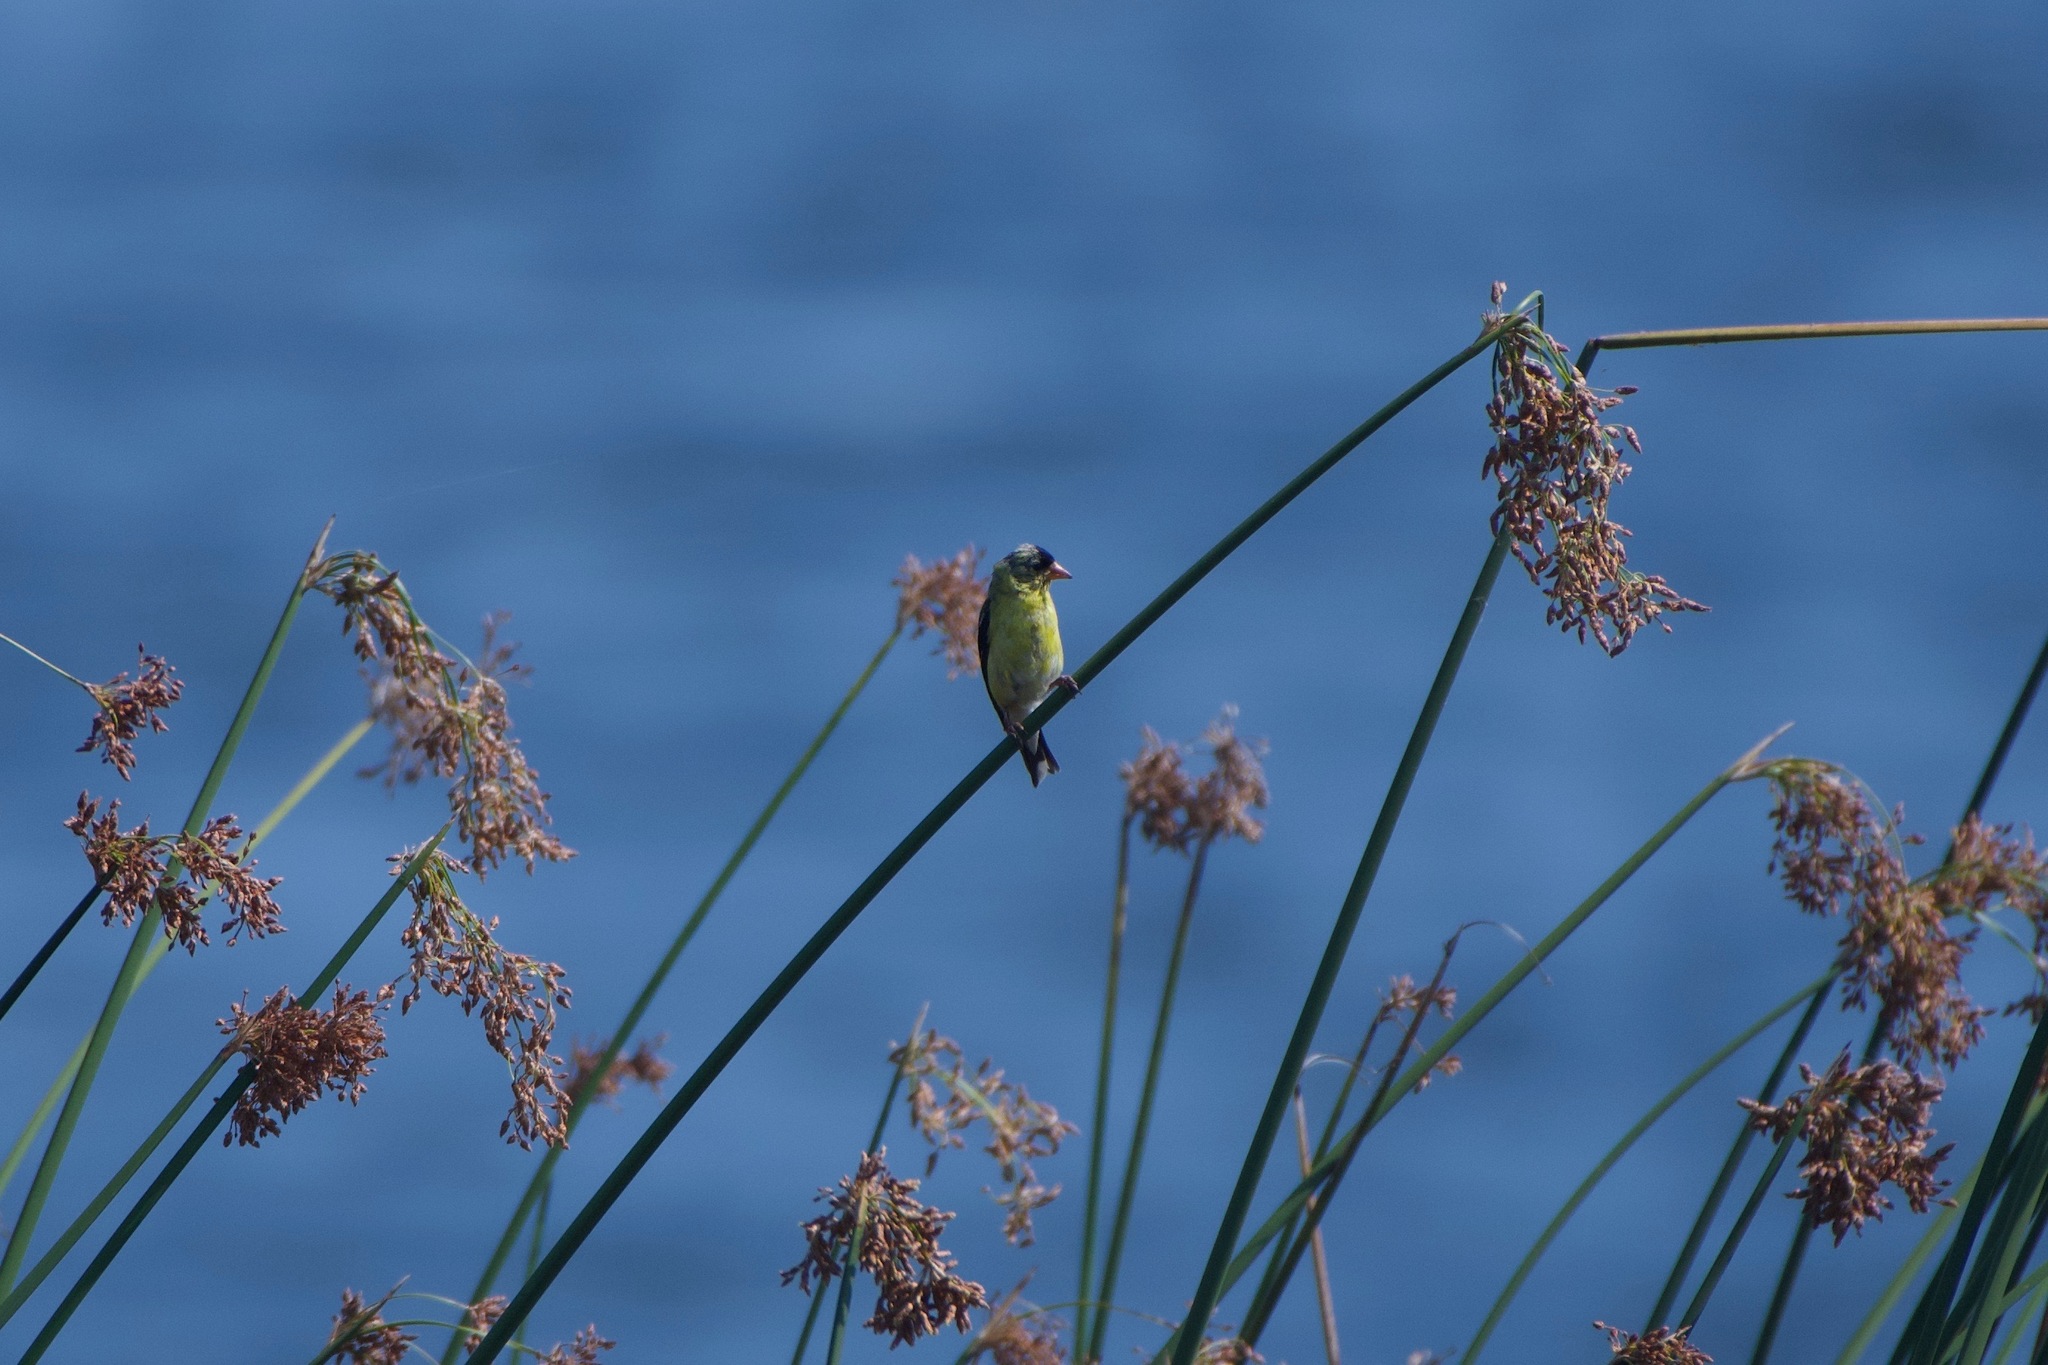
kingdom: Animalia
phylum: Chordata
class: Aves
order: Passeriformes
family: Fringillidae
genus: Spinus
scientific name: Spinus psaltria
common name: Lesser goldfinch
